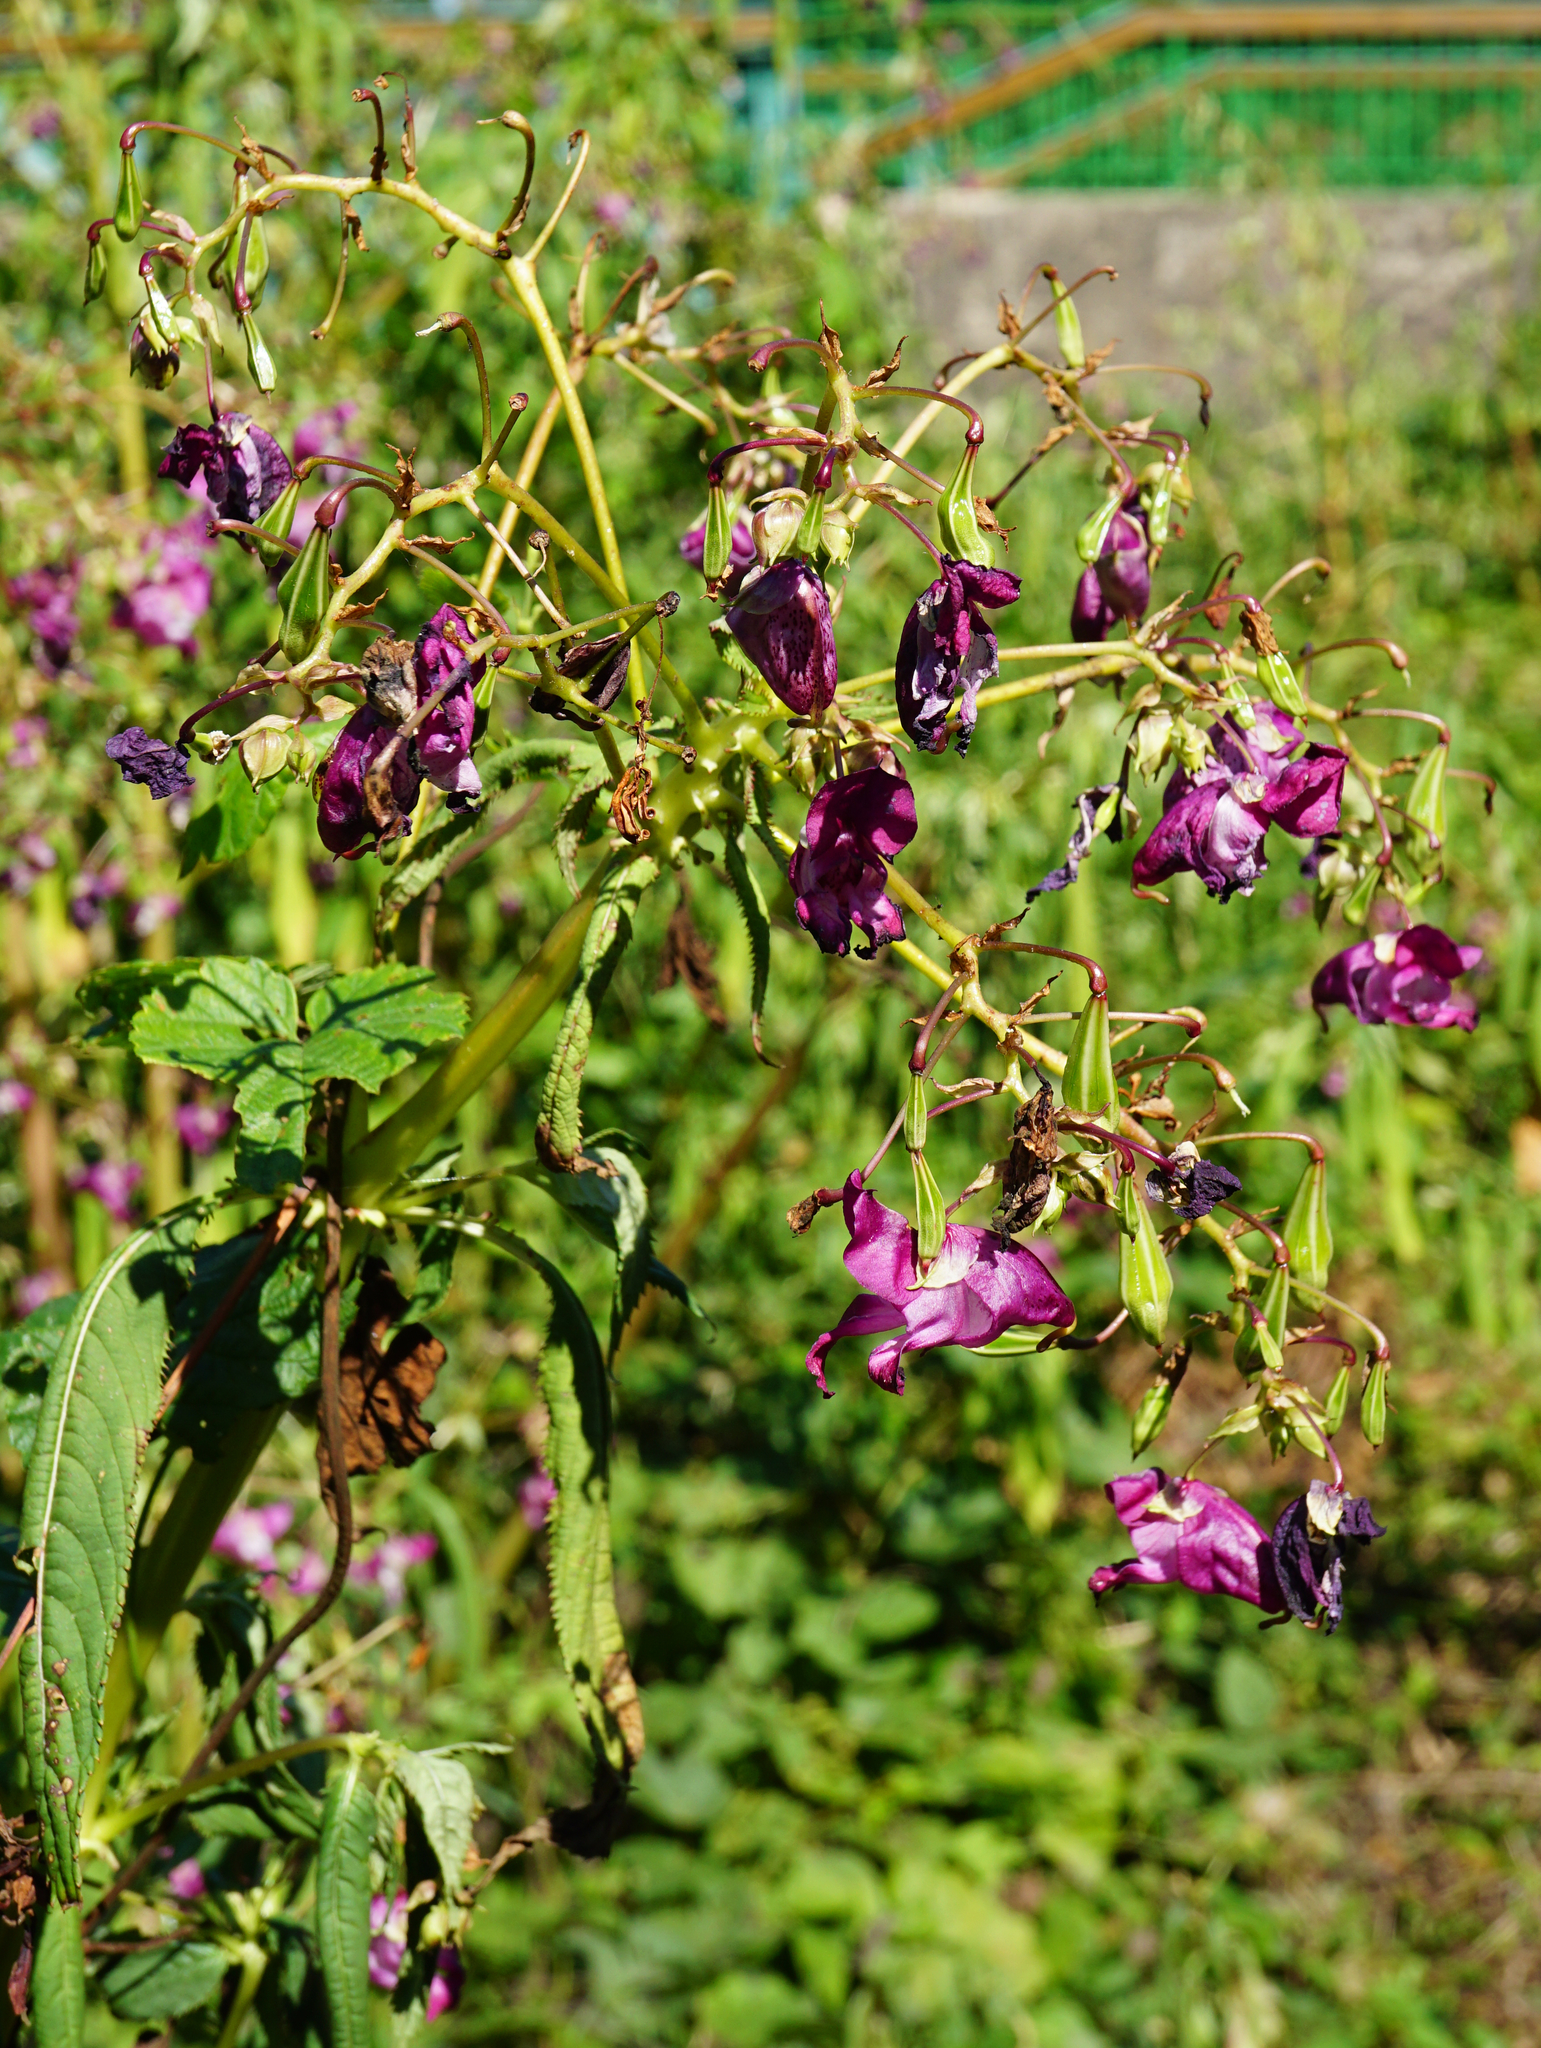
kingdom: Plantae
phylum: Tracheophyta
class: Magnoliopsida
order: Ericales
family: Balsaminaceae
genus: Impatiens
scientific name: Impatiens glandulifera
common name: Himalayan balsam
